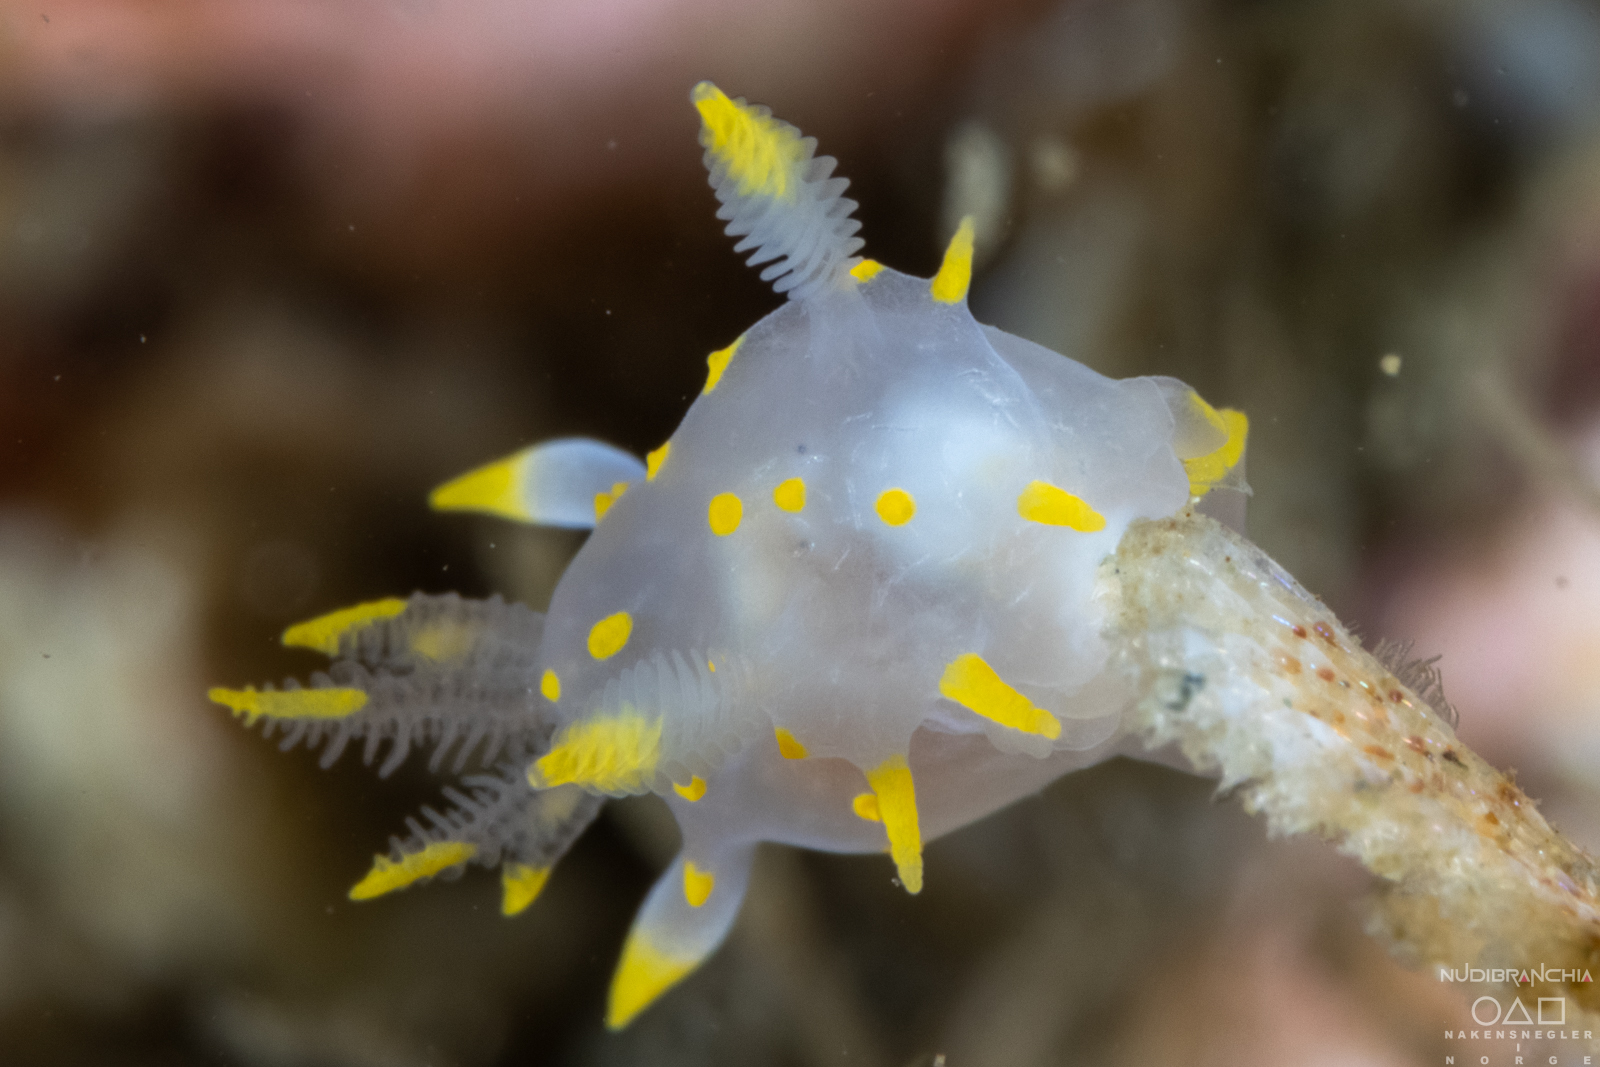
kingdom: Animalia
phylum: Mollusca
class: Gastropoda
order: Nudibranchia
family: Polyceridae
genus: Polycera
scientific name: Polycera quadrilineata
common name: Four-striped polycera
